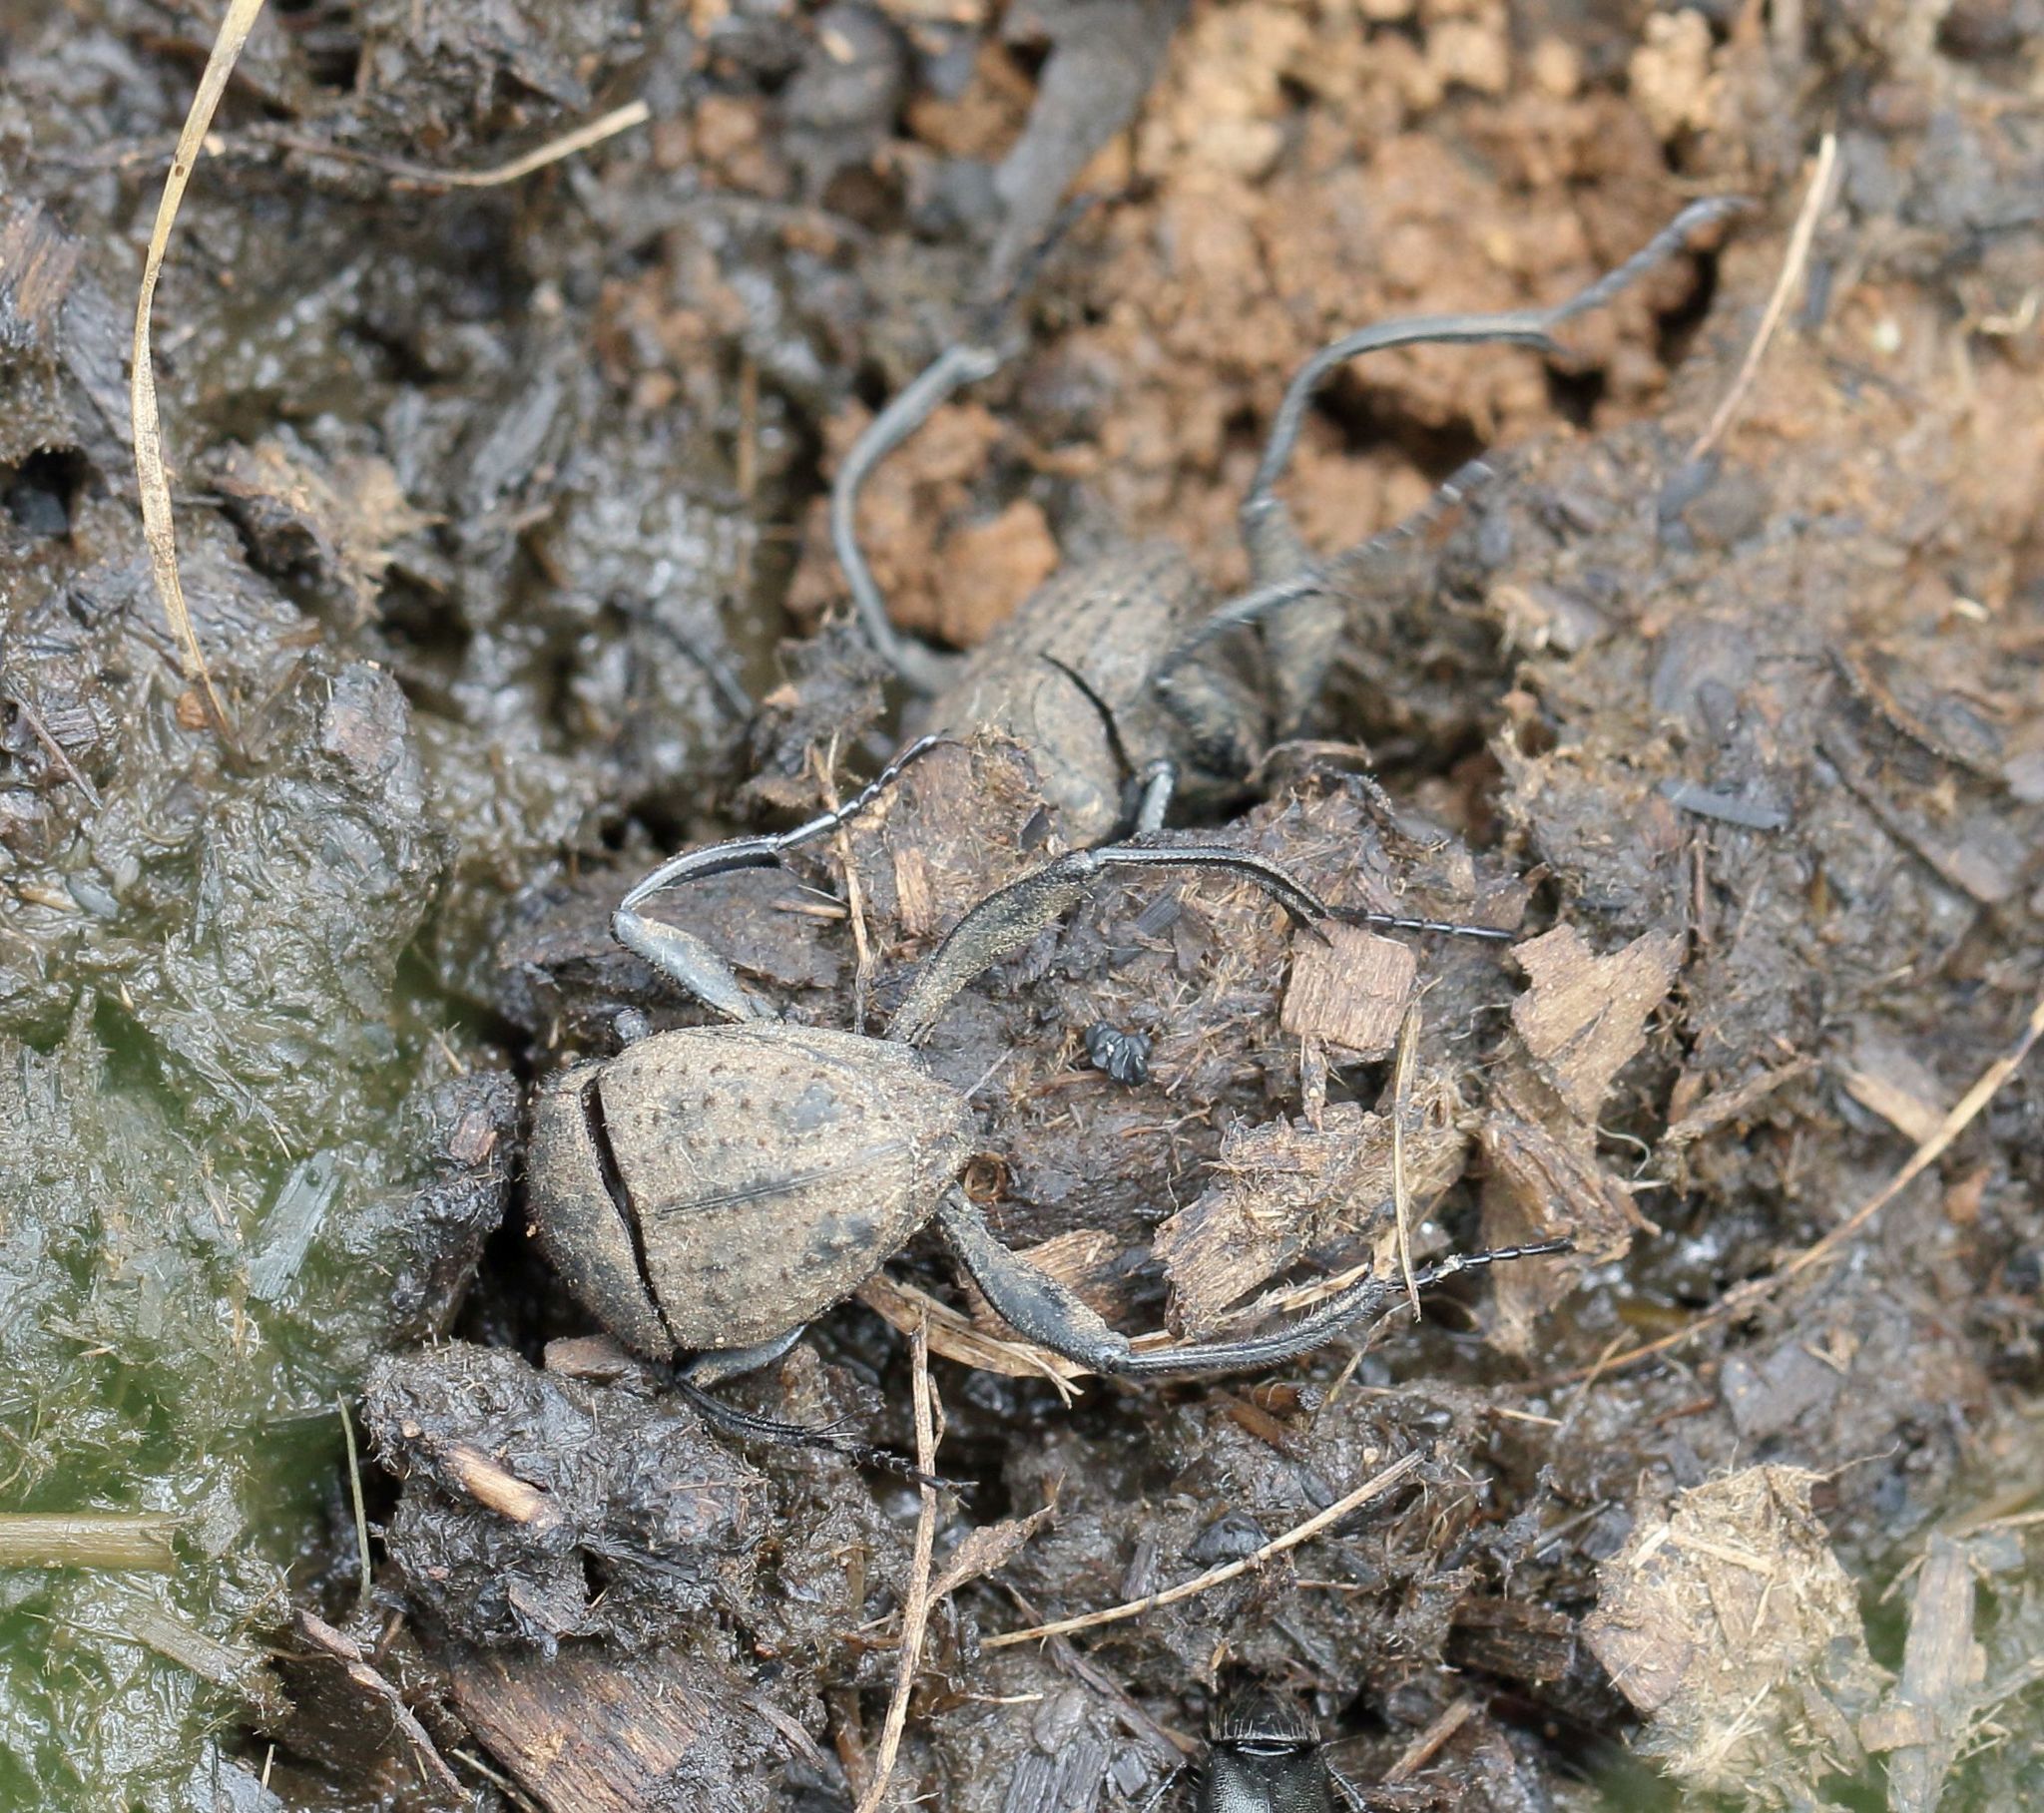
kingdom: Animalia
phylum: Arthropoda
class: Insecta
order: Coleoptera
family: Scarabaeidae
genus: Sisyphus
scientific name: Sisyphus muricatus
